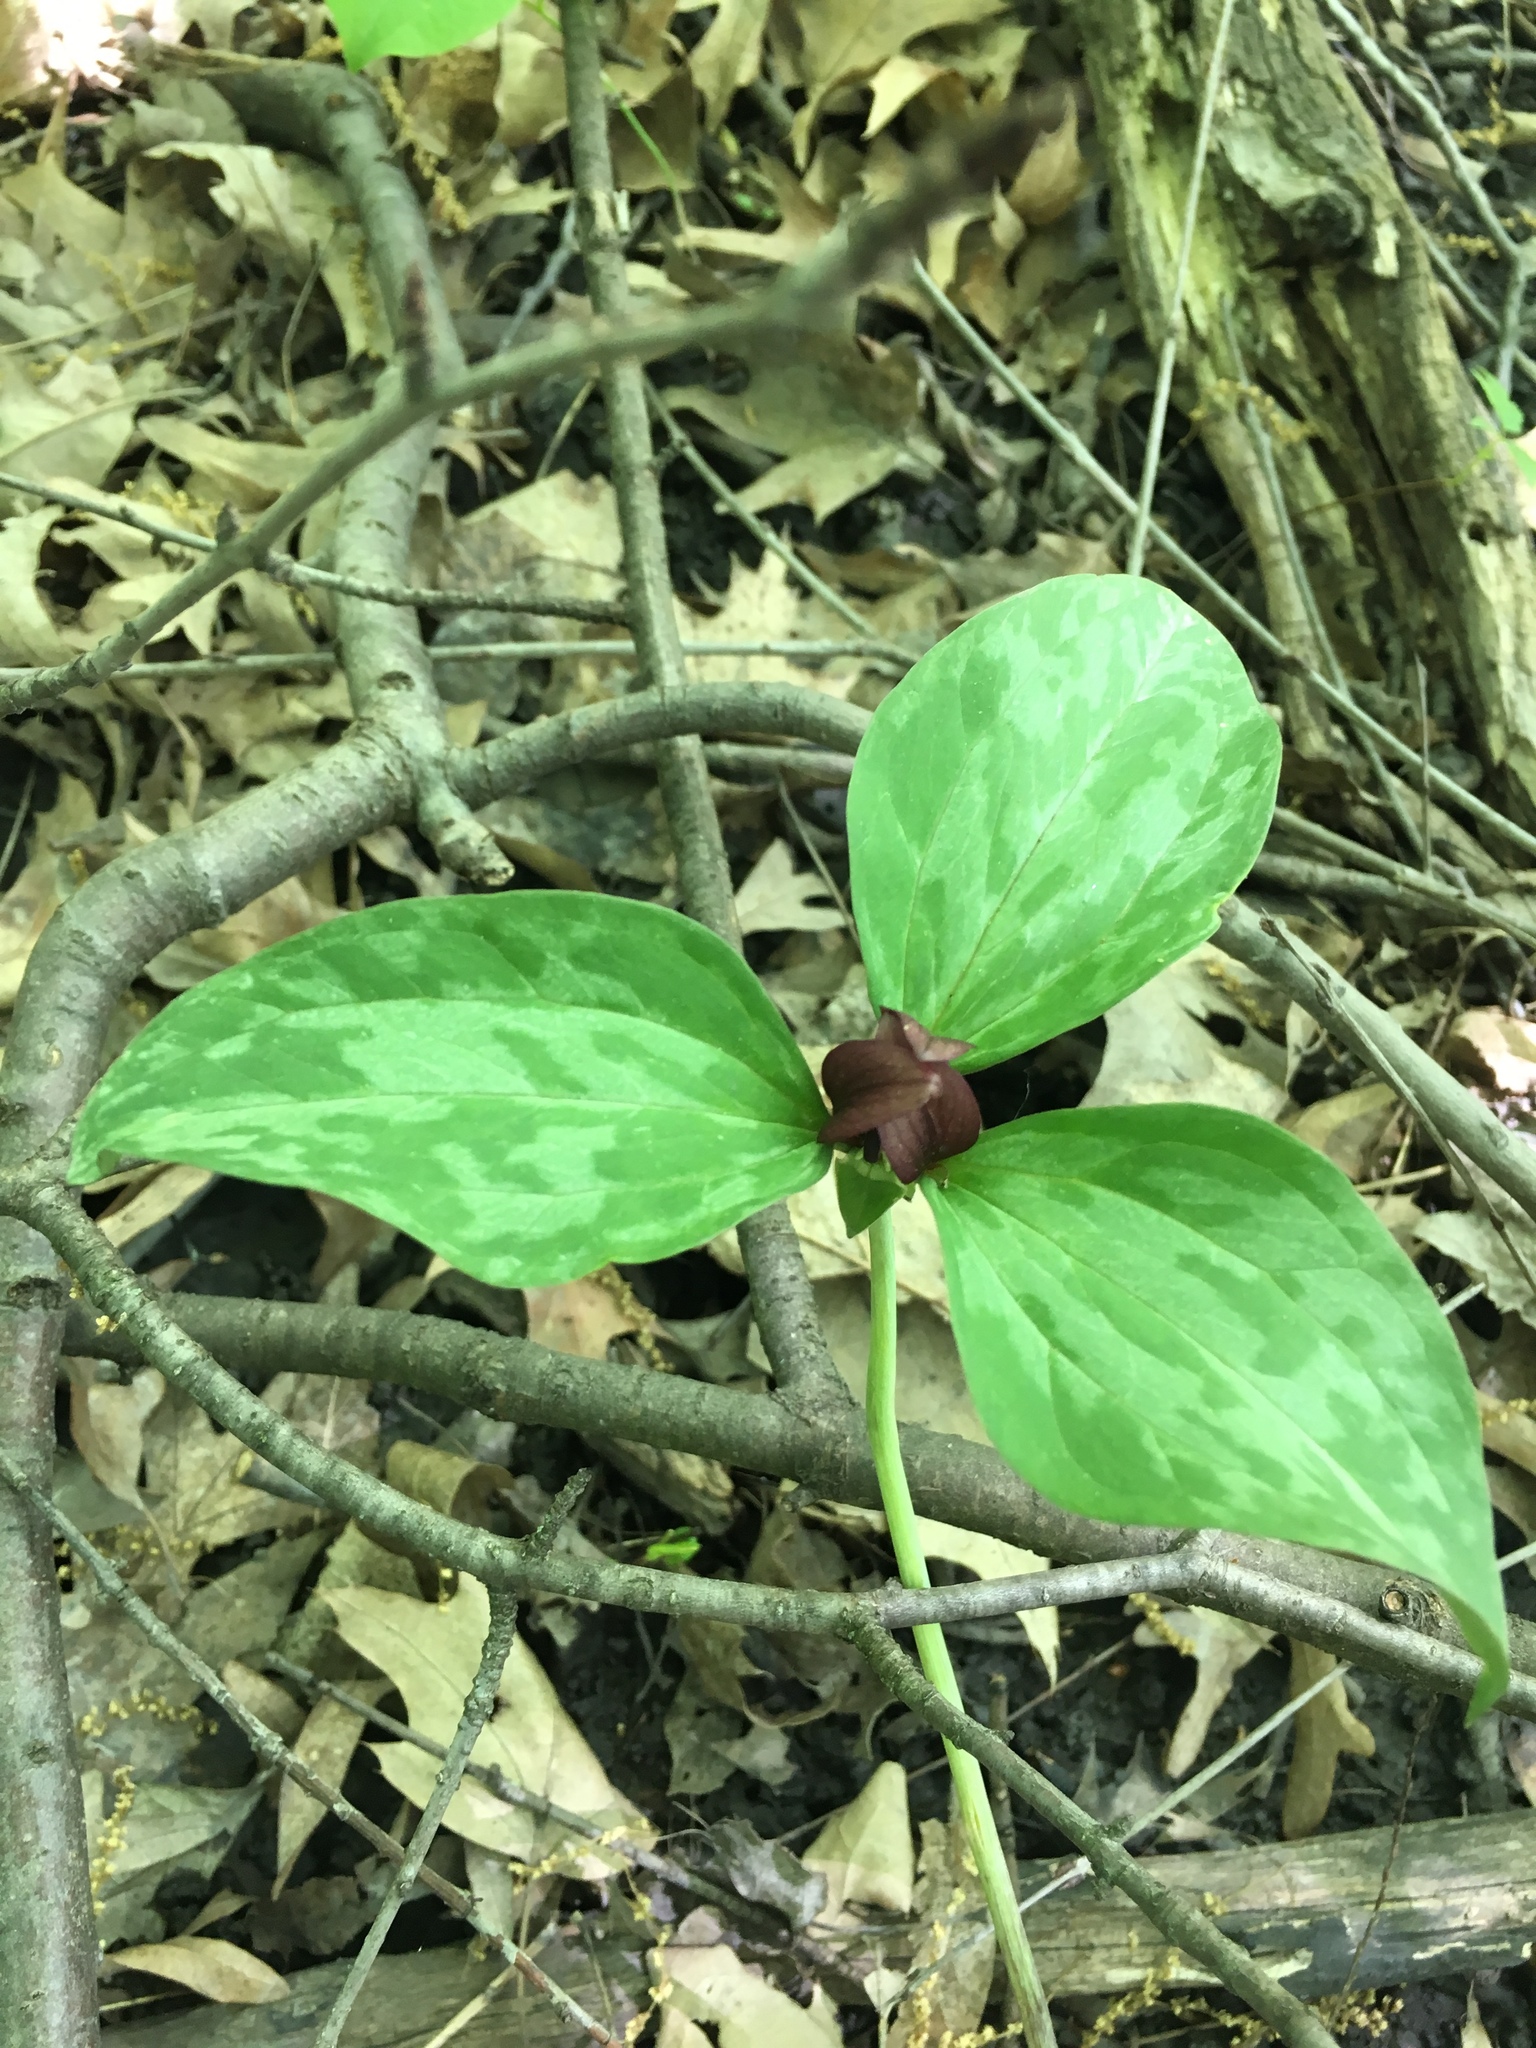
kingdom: Plantae
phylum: Tracheophyta
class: Liliopsida
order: Liliales
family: Melanthiaceae
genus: Trillium
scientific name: Trillium recurvatum
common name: Bloody butcher
